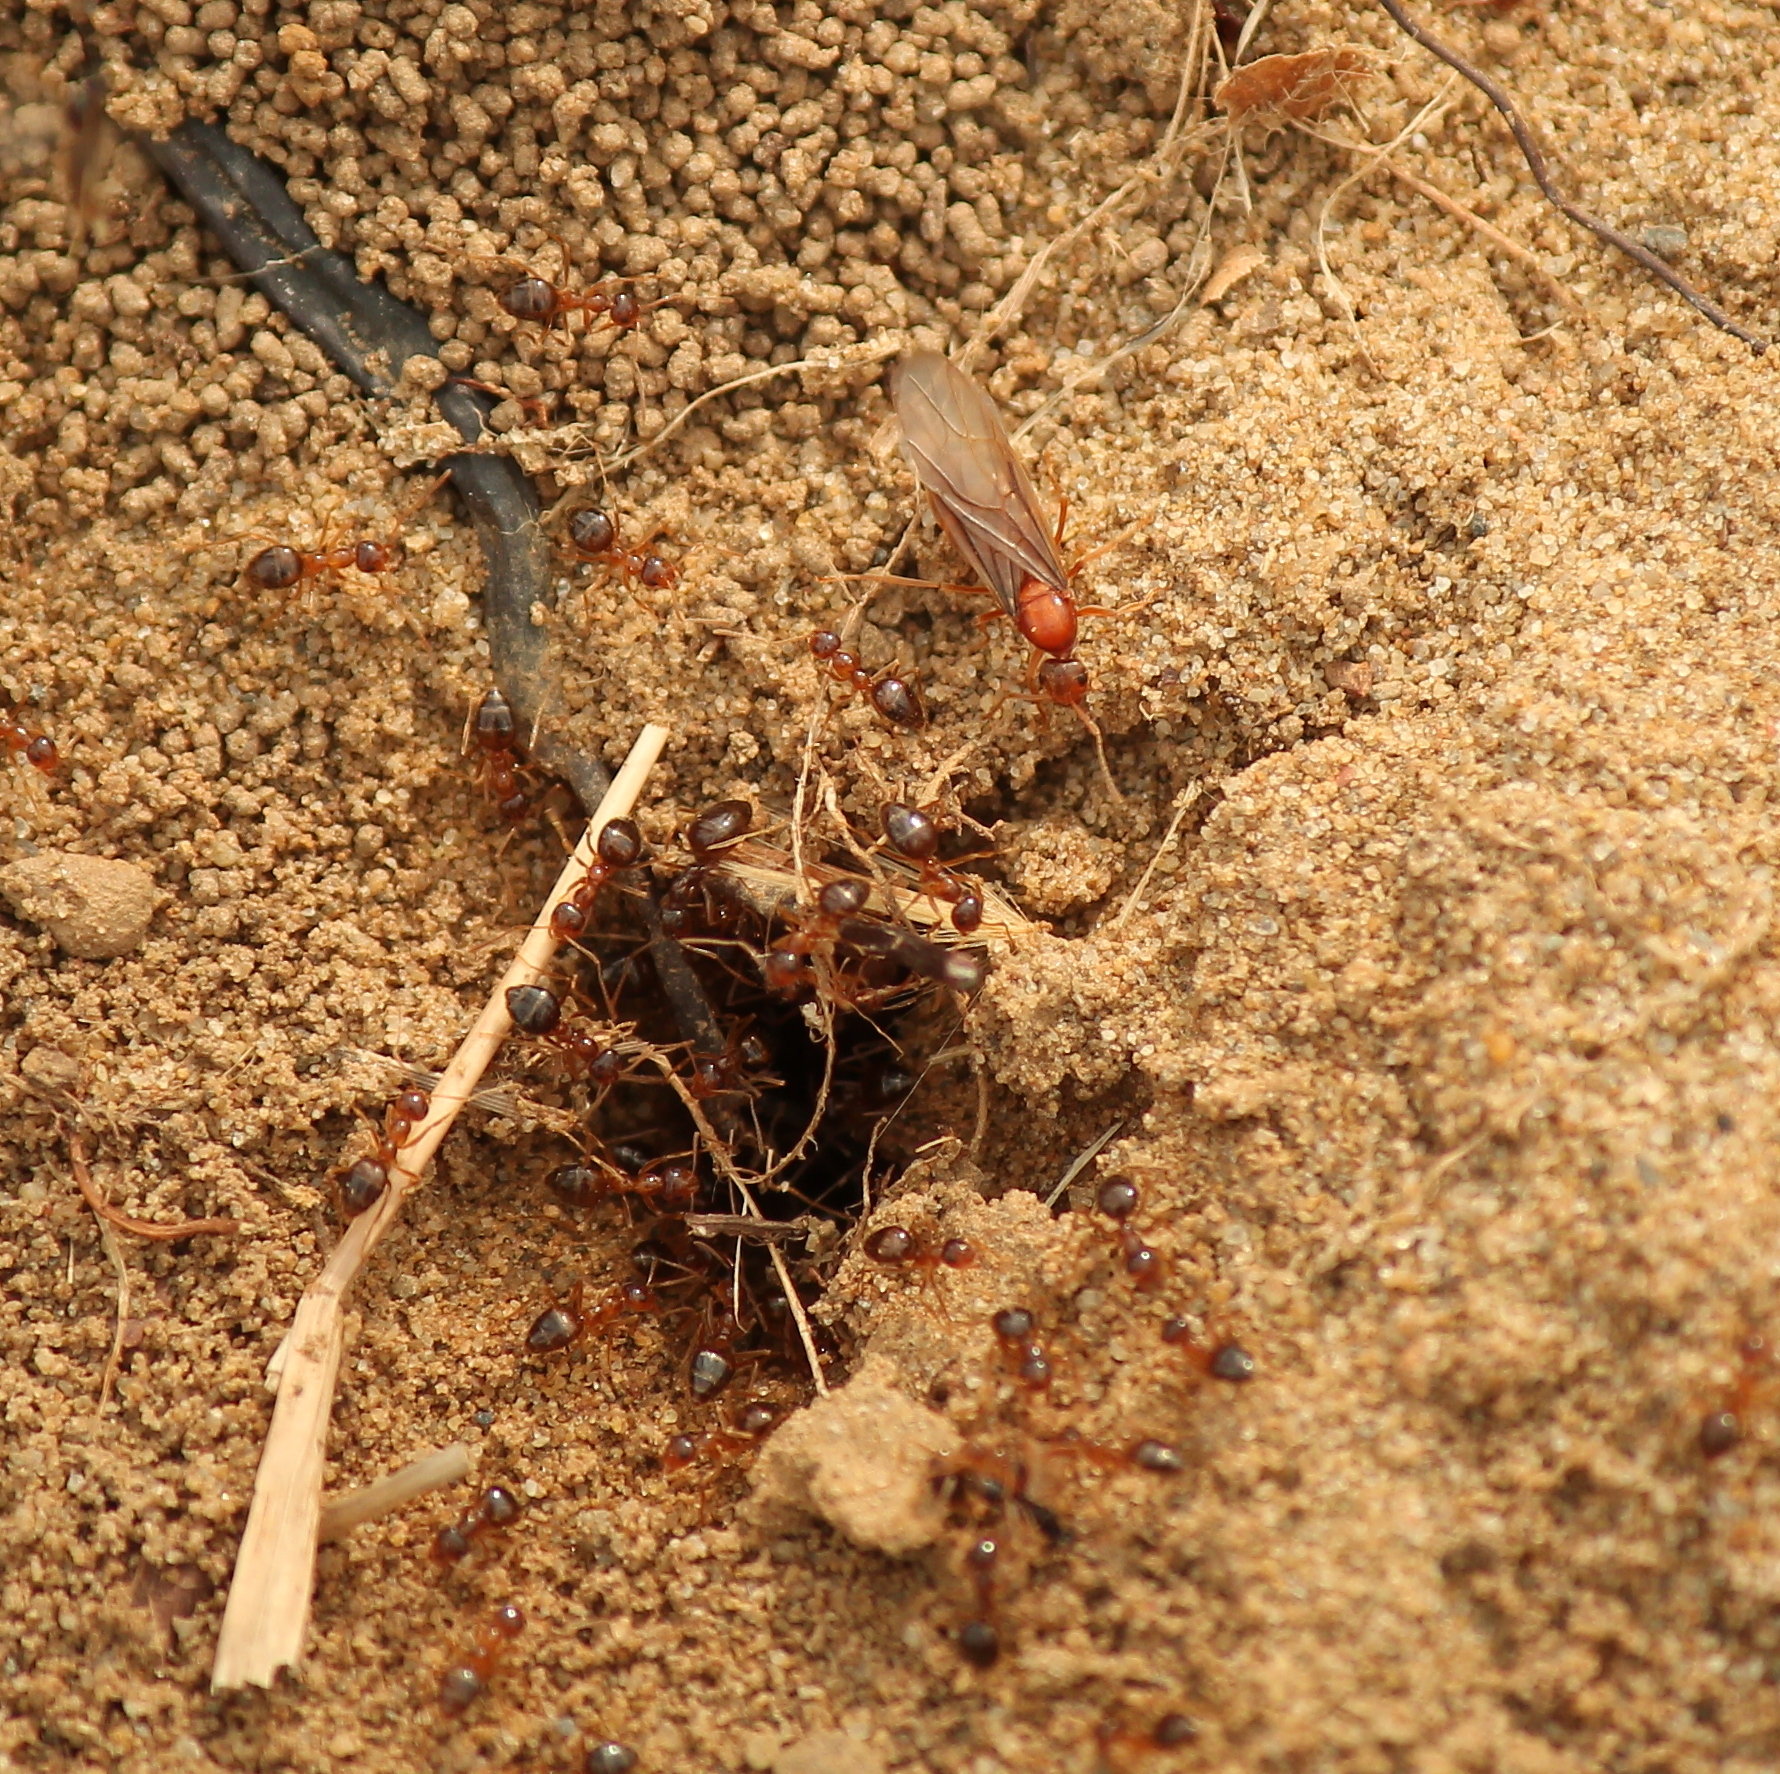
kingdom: Animalia
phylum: Arthropoda
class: Insecta
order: Hymenoptera
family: Formicidae
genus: Prenolepis
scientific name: Prenolepis imparis
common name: Small honey ant
